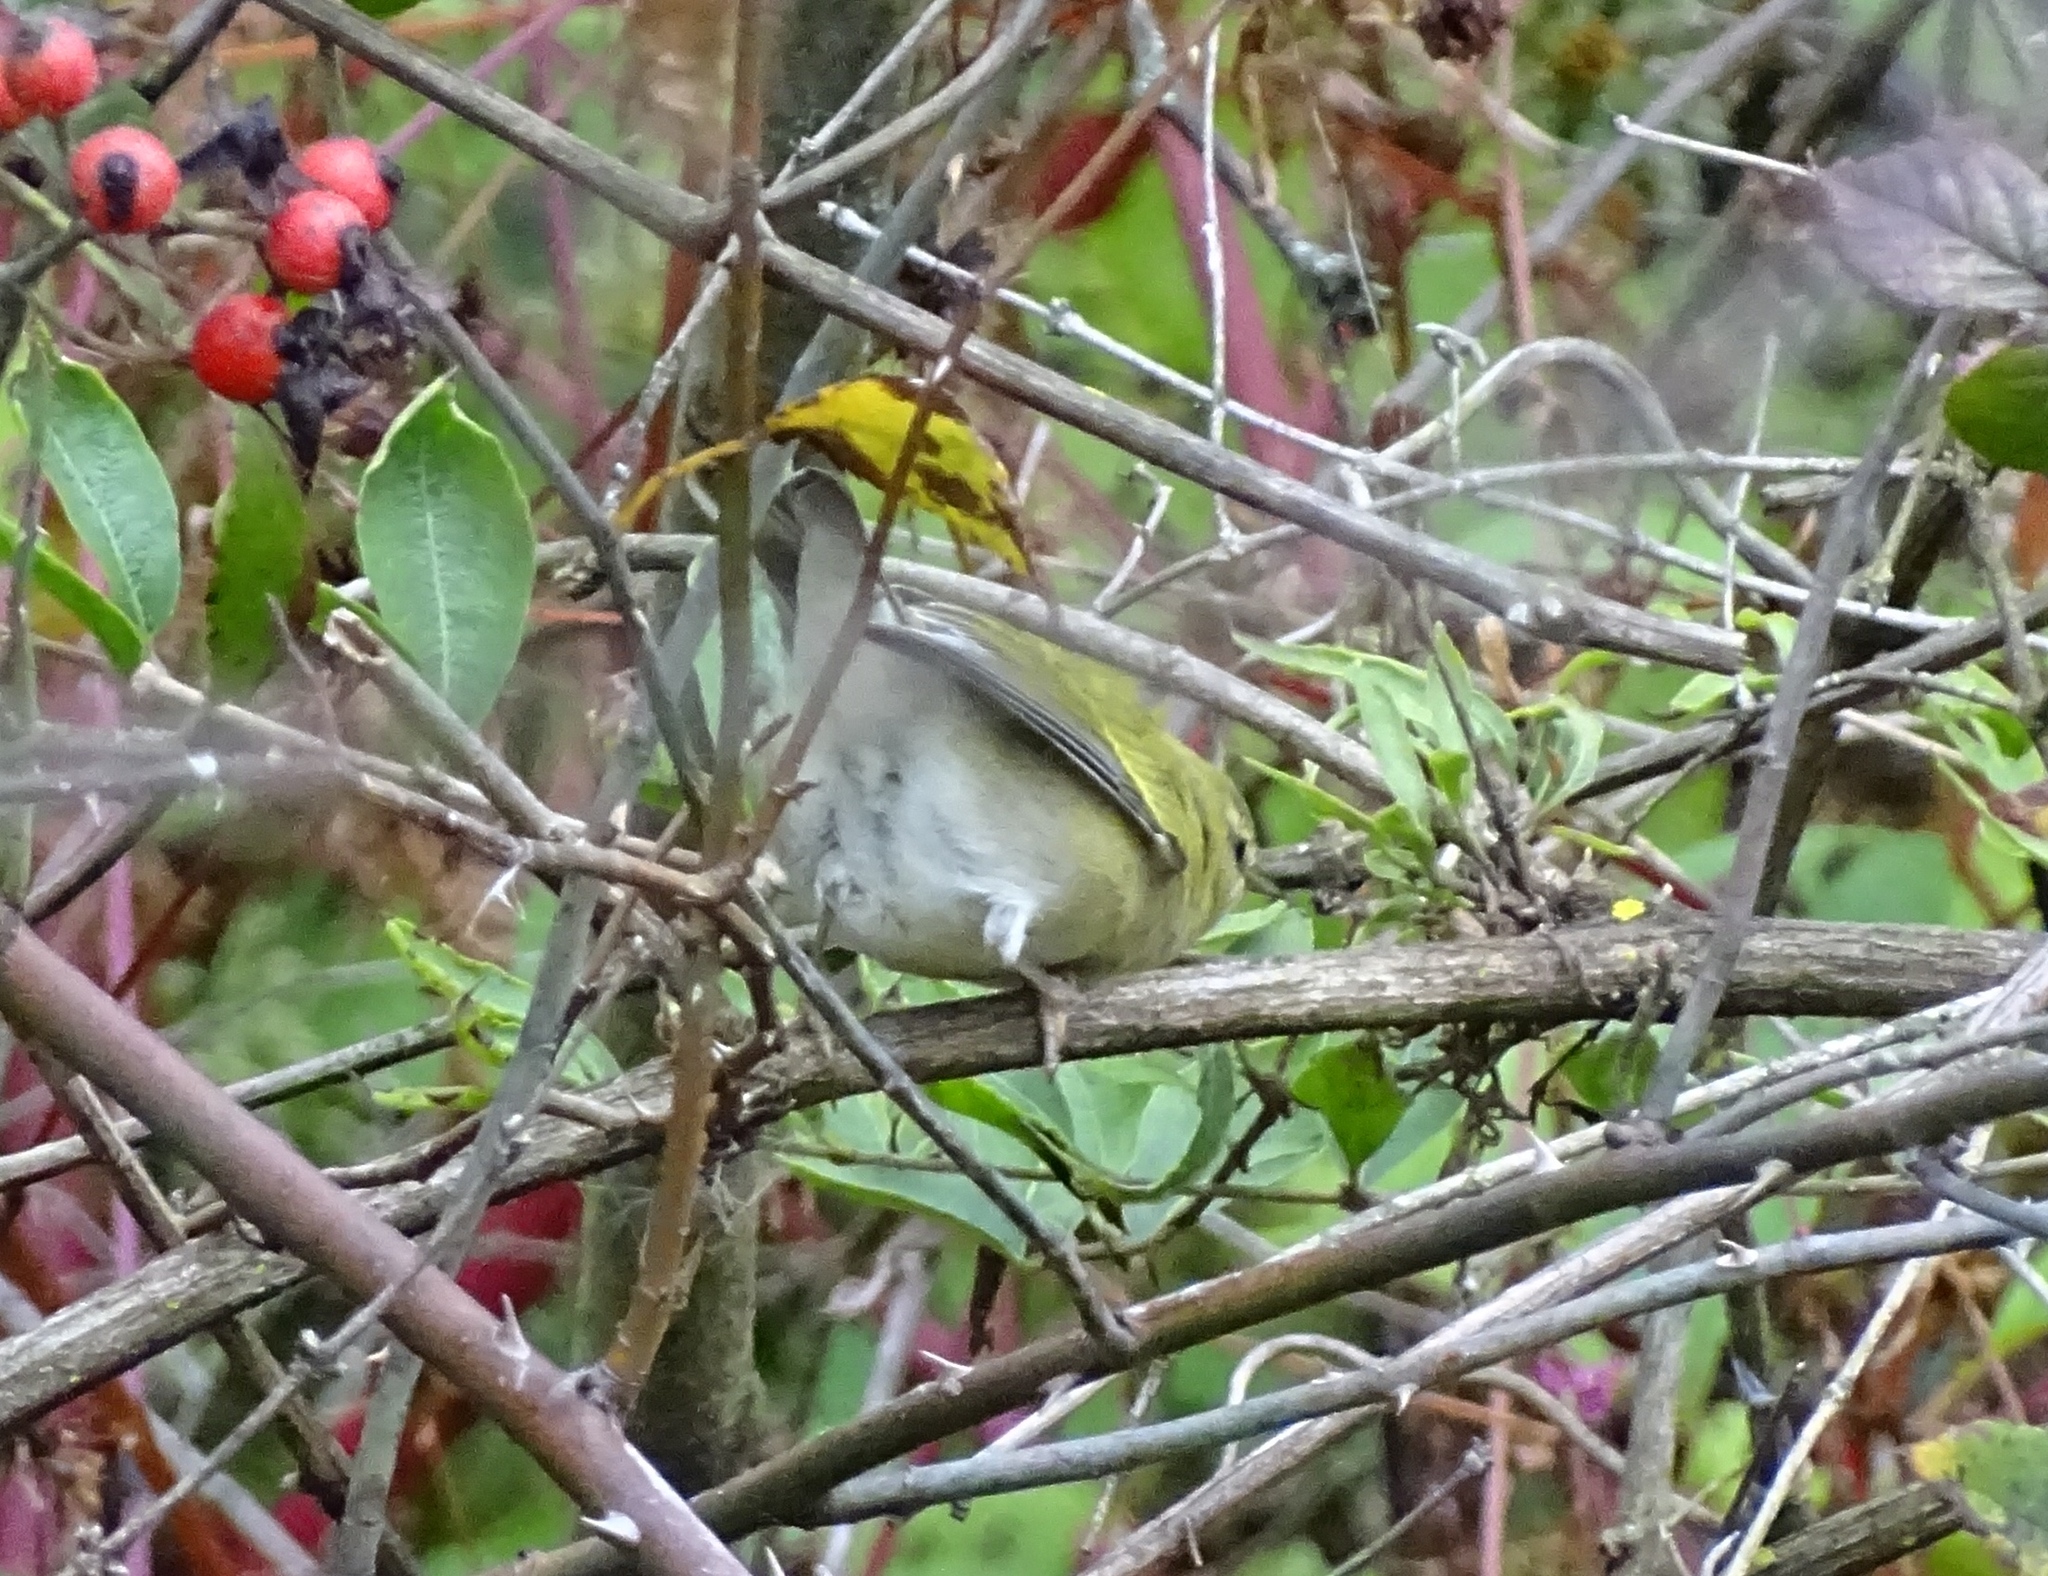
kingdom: Animalia
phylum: Chordata
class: Aves
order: Passeriformes
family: Parulidae
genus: Leiothlypis
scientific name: Leiothlypis peregrina
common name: Tennessee warbler
